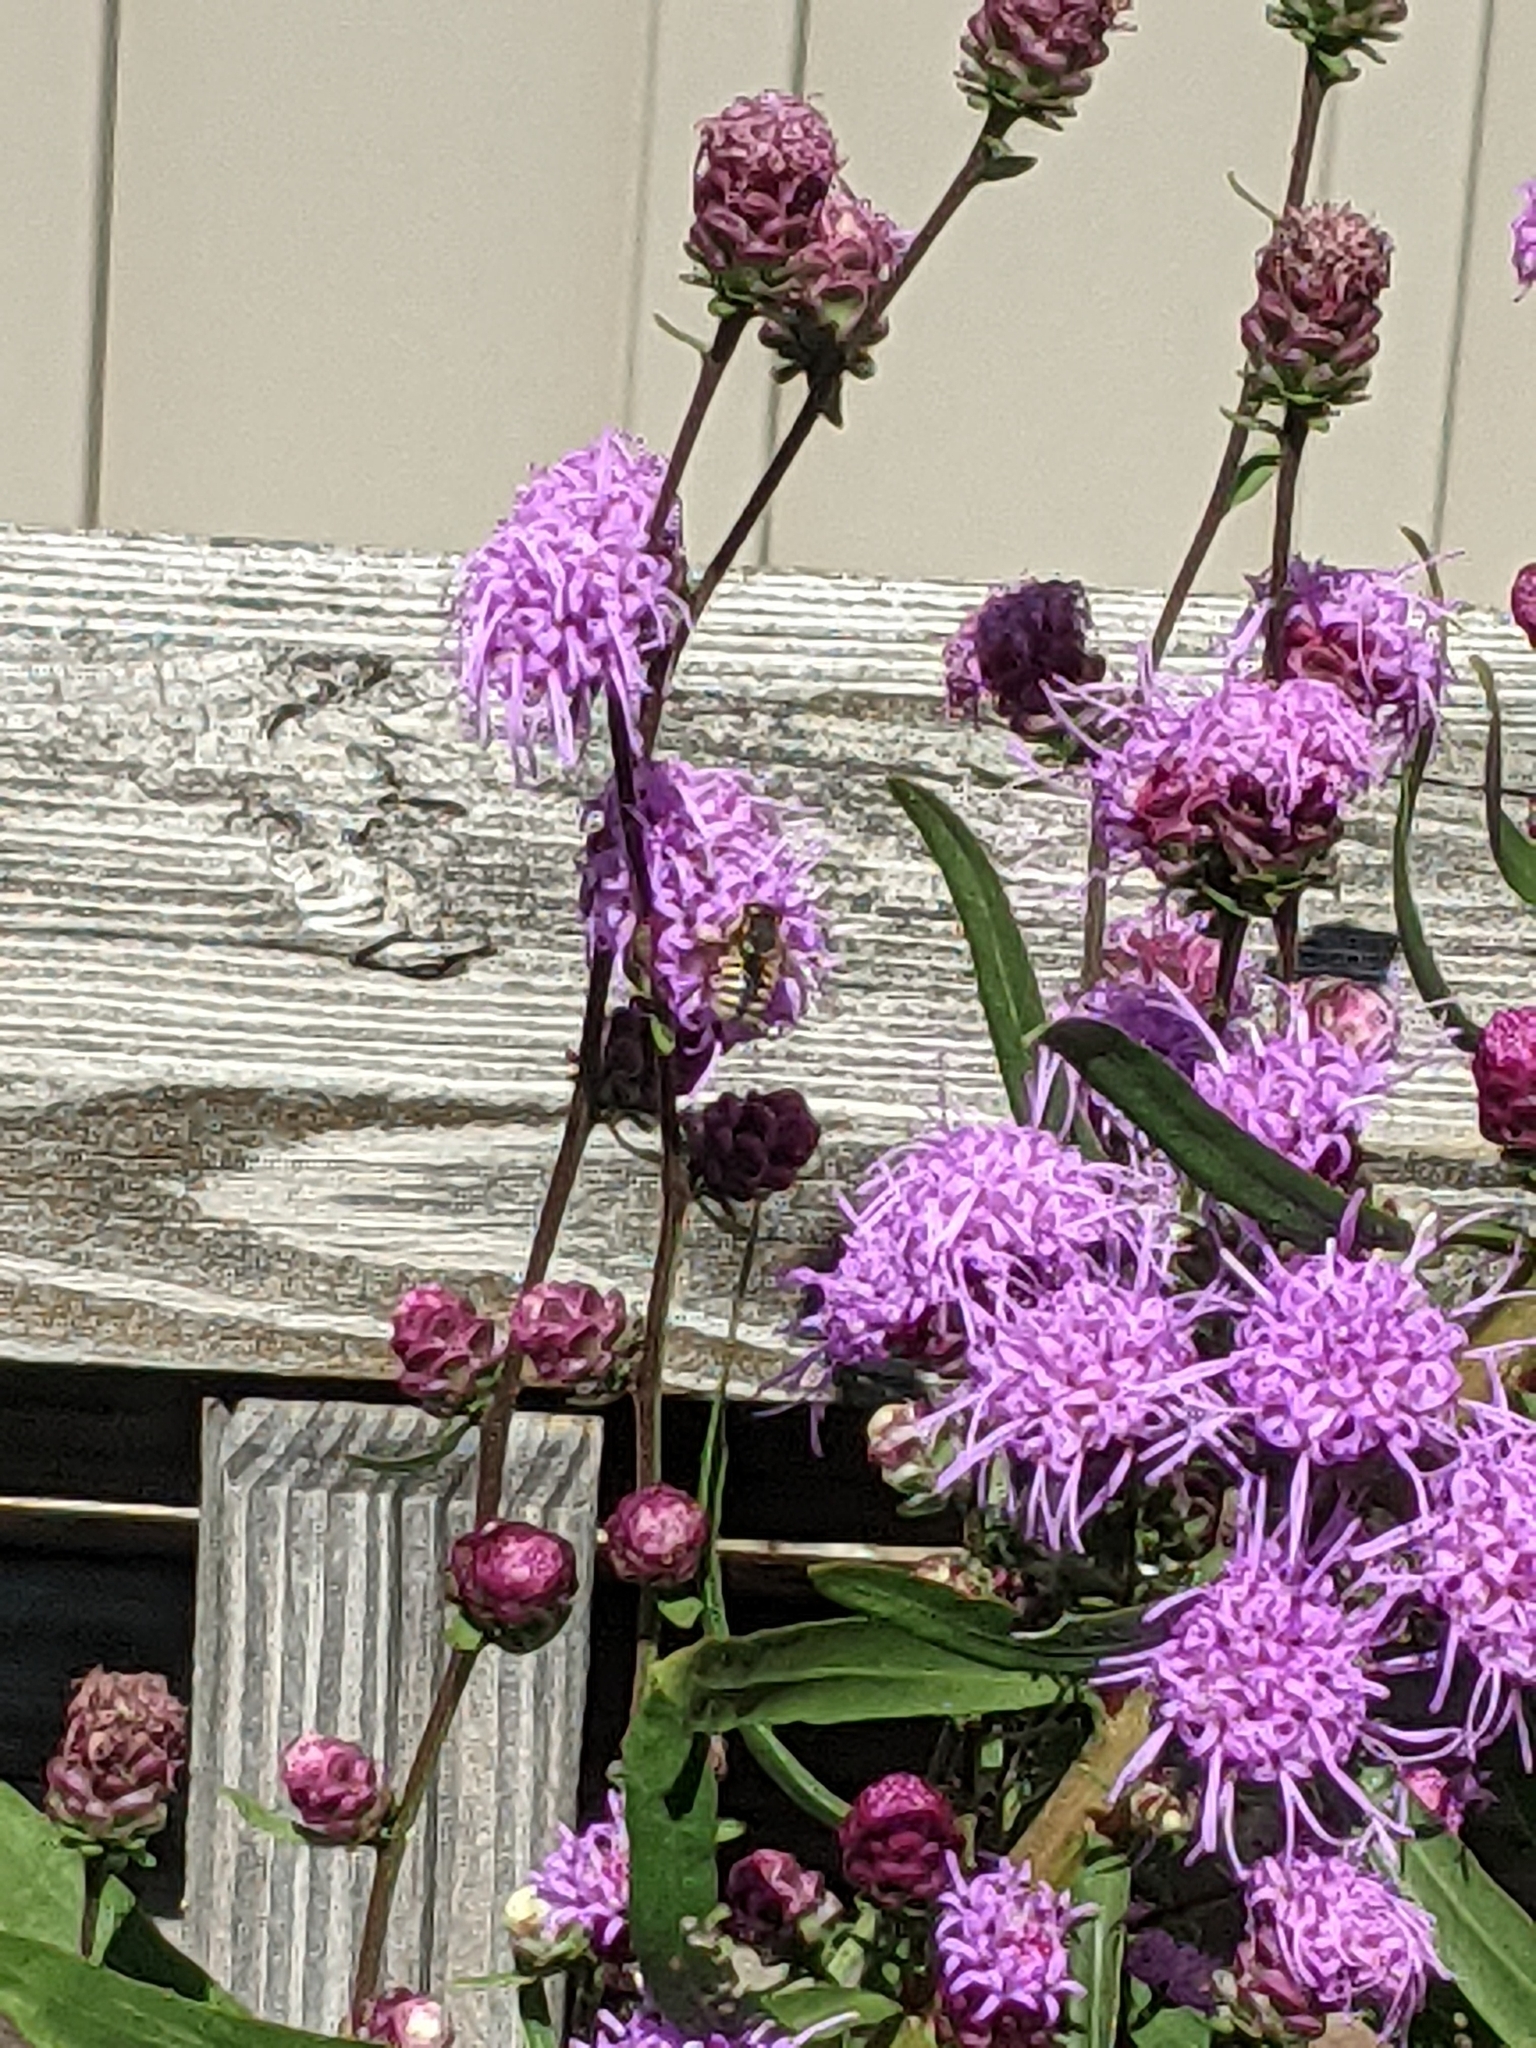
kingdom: Animalia
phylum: Arthropoda
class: Insecta
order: Hymenoptera
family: Megachilidae
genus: Anthidium
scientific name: Anthidium manicatum
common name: Wool carder bee
